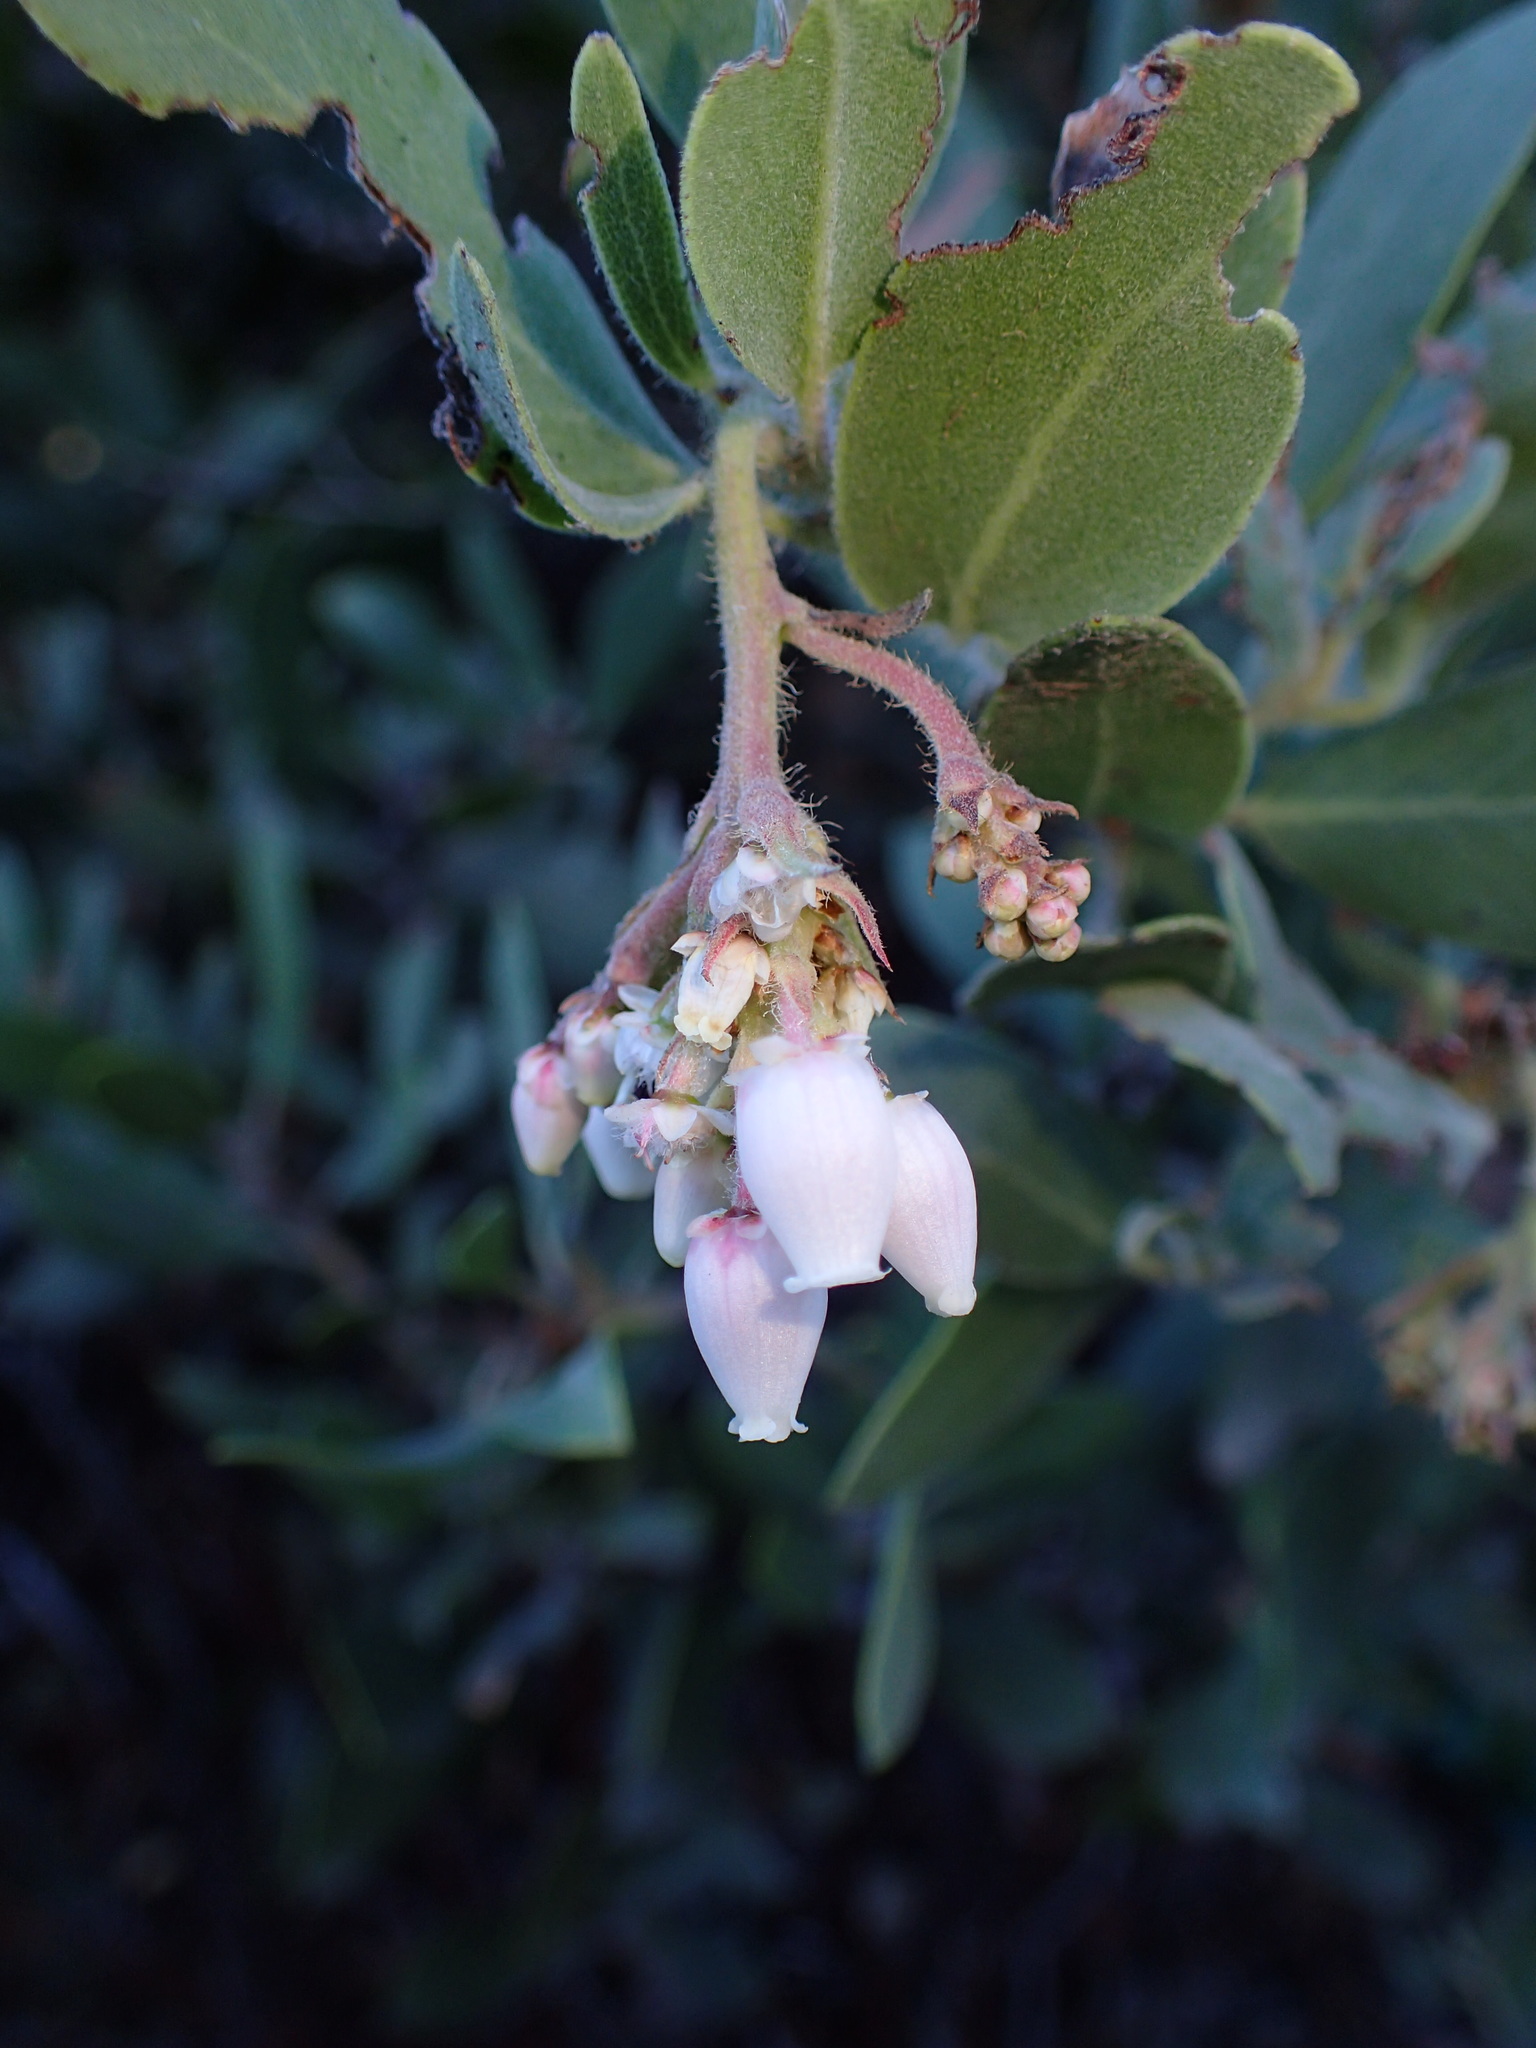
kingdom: Plantae
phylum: Tracheophyta
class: Magnoliopsida
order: Ericales
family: Ericaceae
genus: Arctostaphylos
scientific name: Arctostaphylos glandulosa
